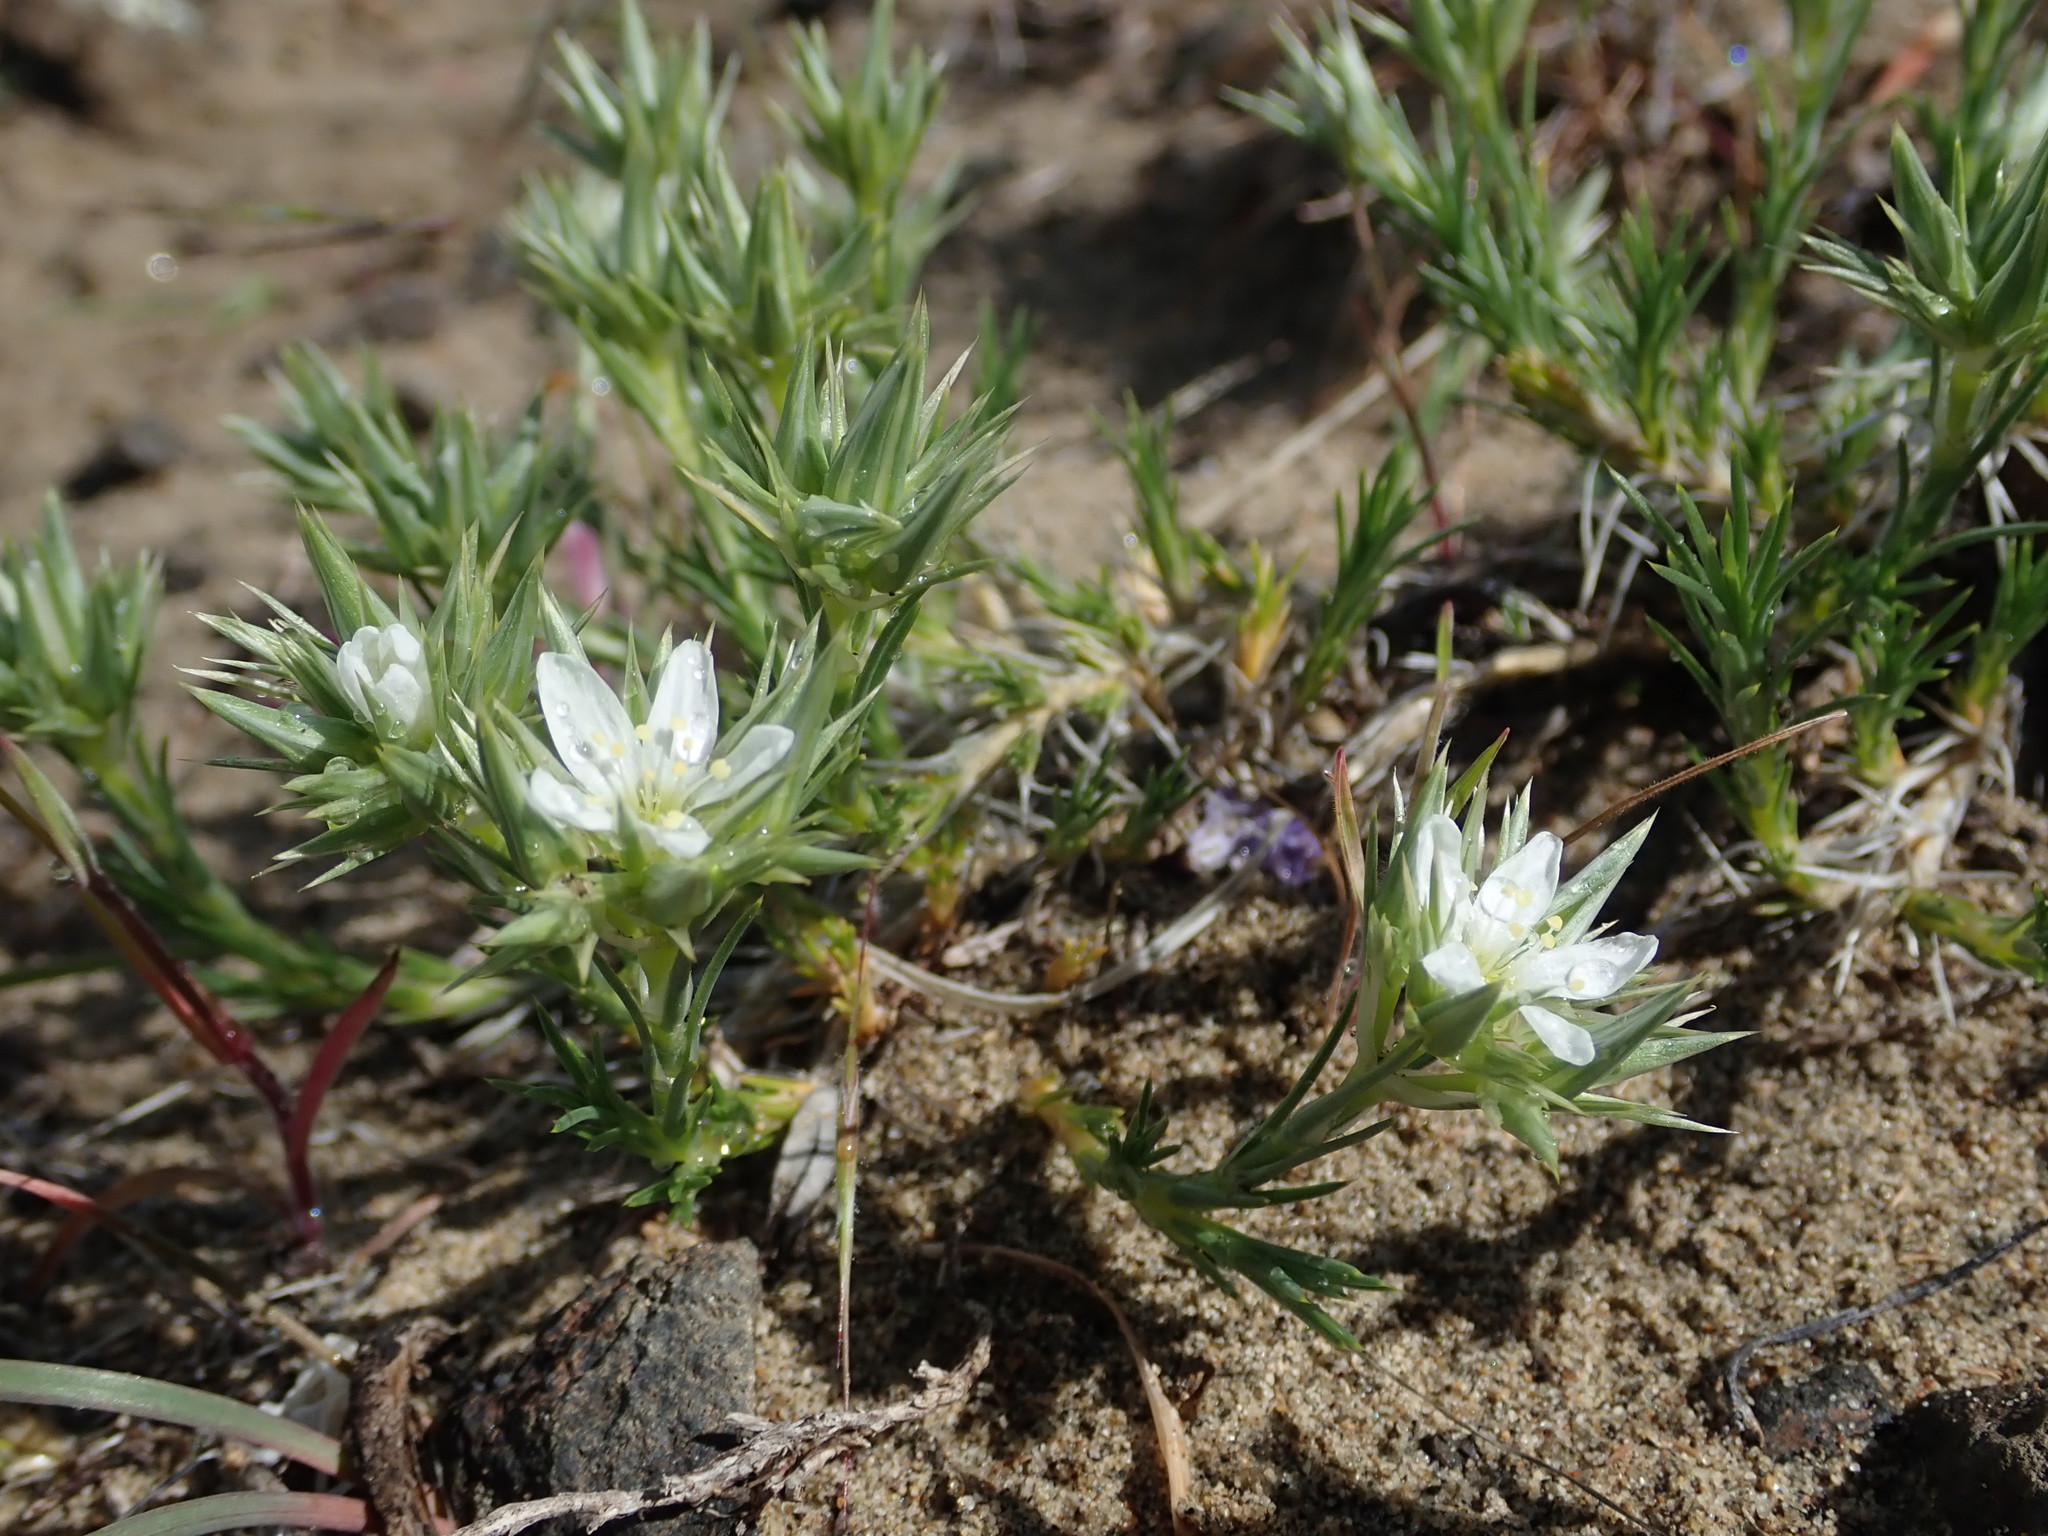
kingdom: Plantae
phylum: Tracheophyta
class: Magnoliopsida
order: Caryophyllales
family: Caryophyllaceae
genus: Eremogone
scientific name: Eremogone franklinii
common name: Franklin's sandwort
